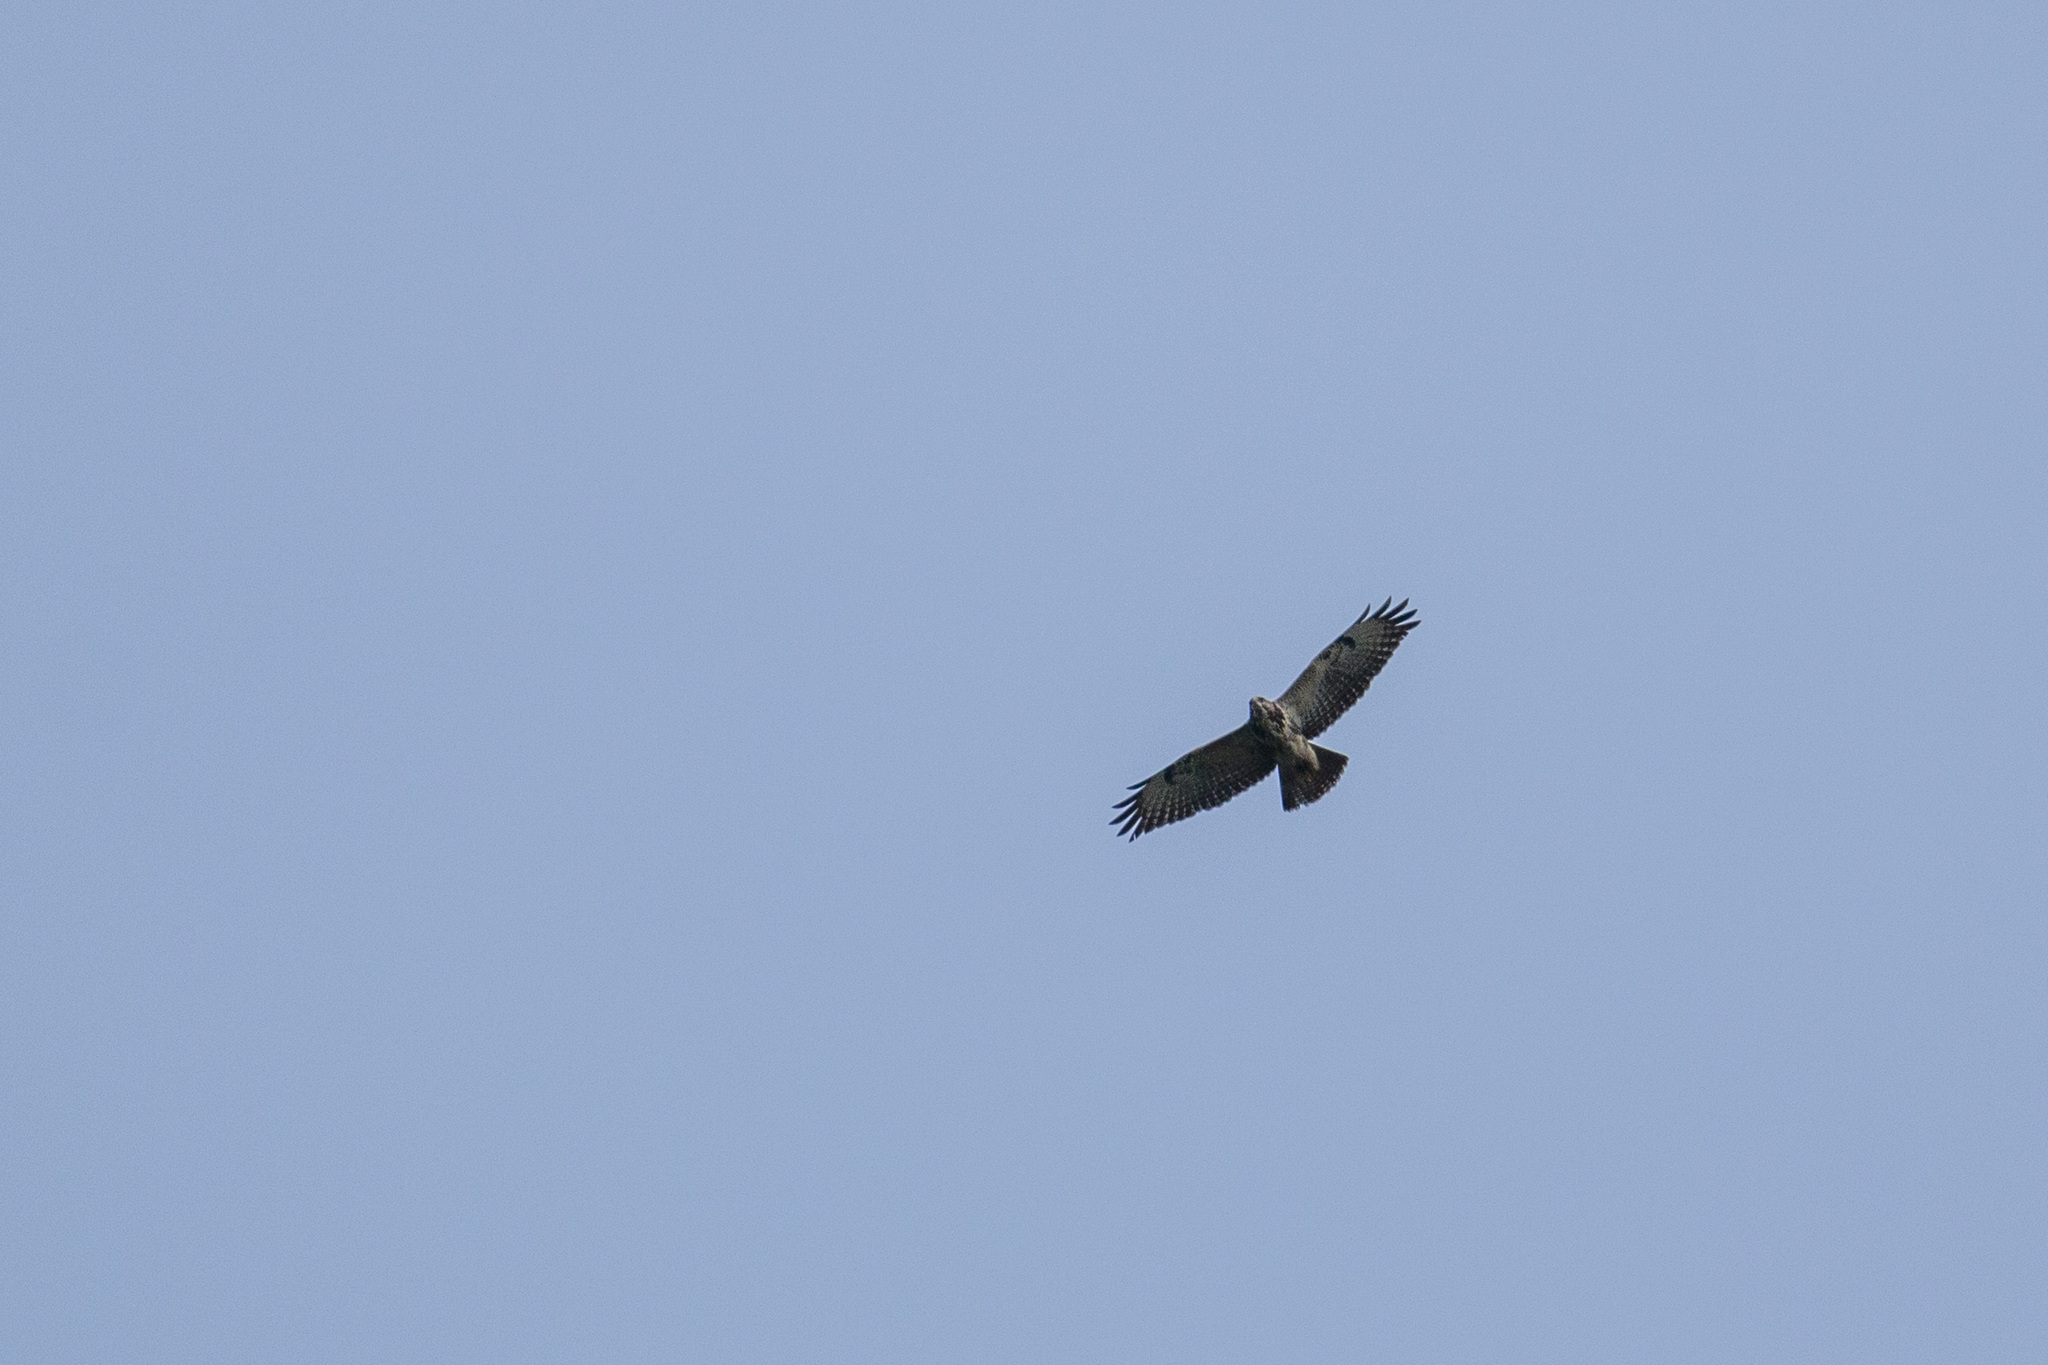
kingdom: Animalia
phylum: Chordata
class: Aves
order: Accipitriformes
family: Accipitridae
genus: Buteo
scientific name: Buteo buteo
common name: Common buzzard
